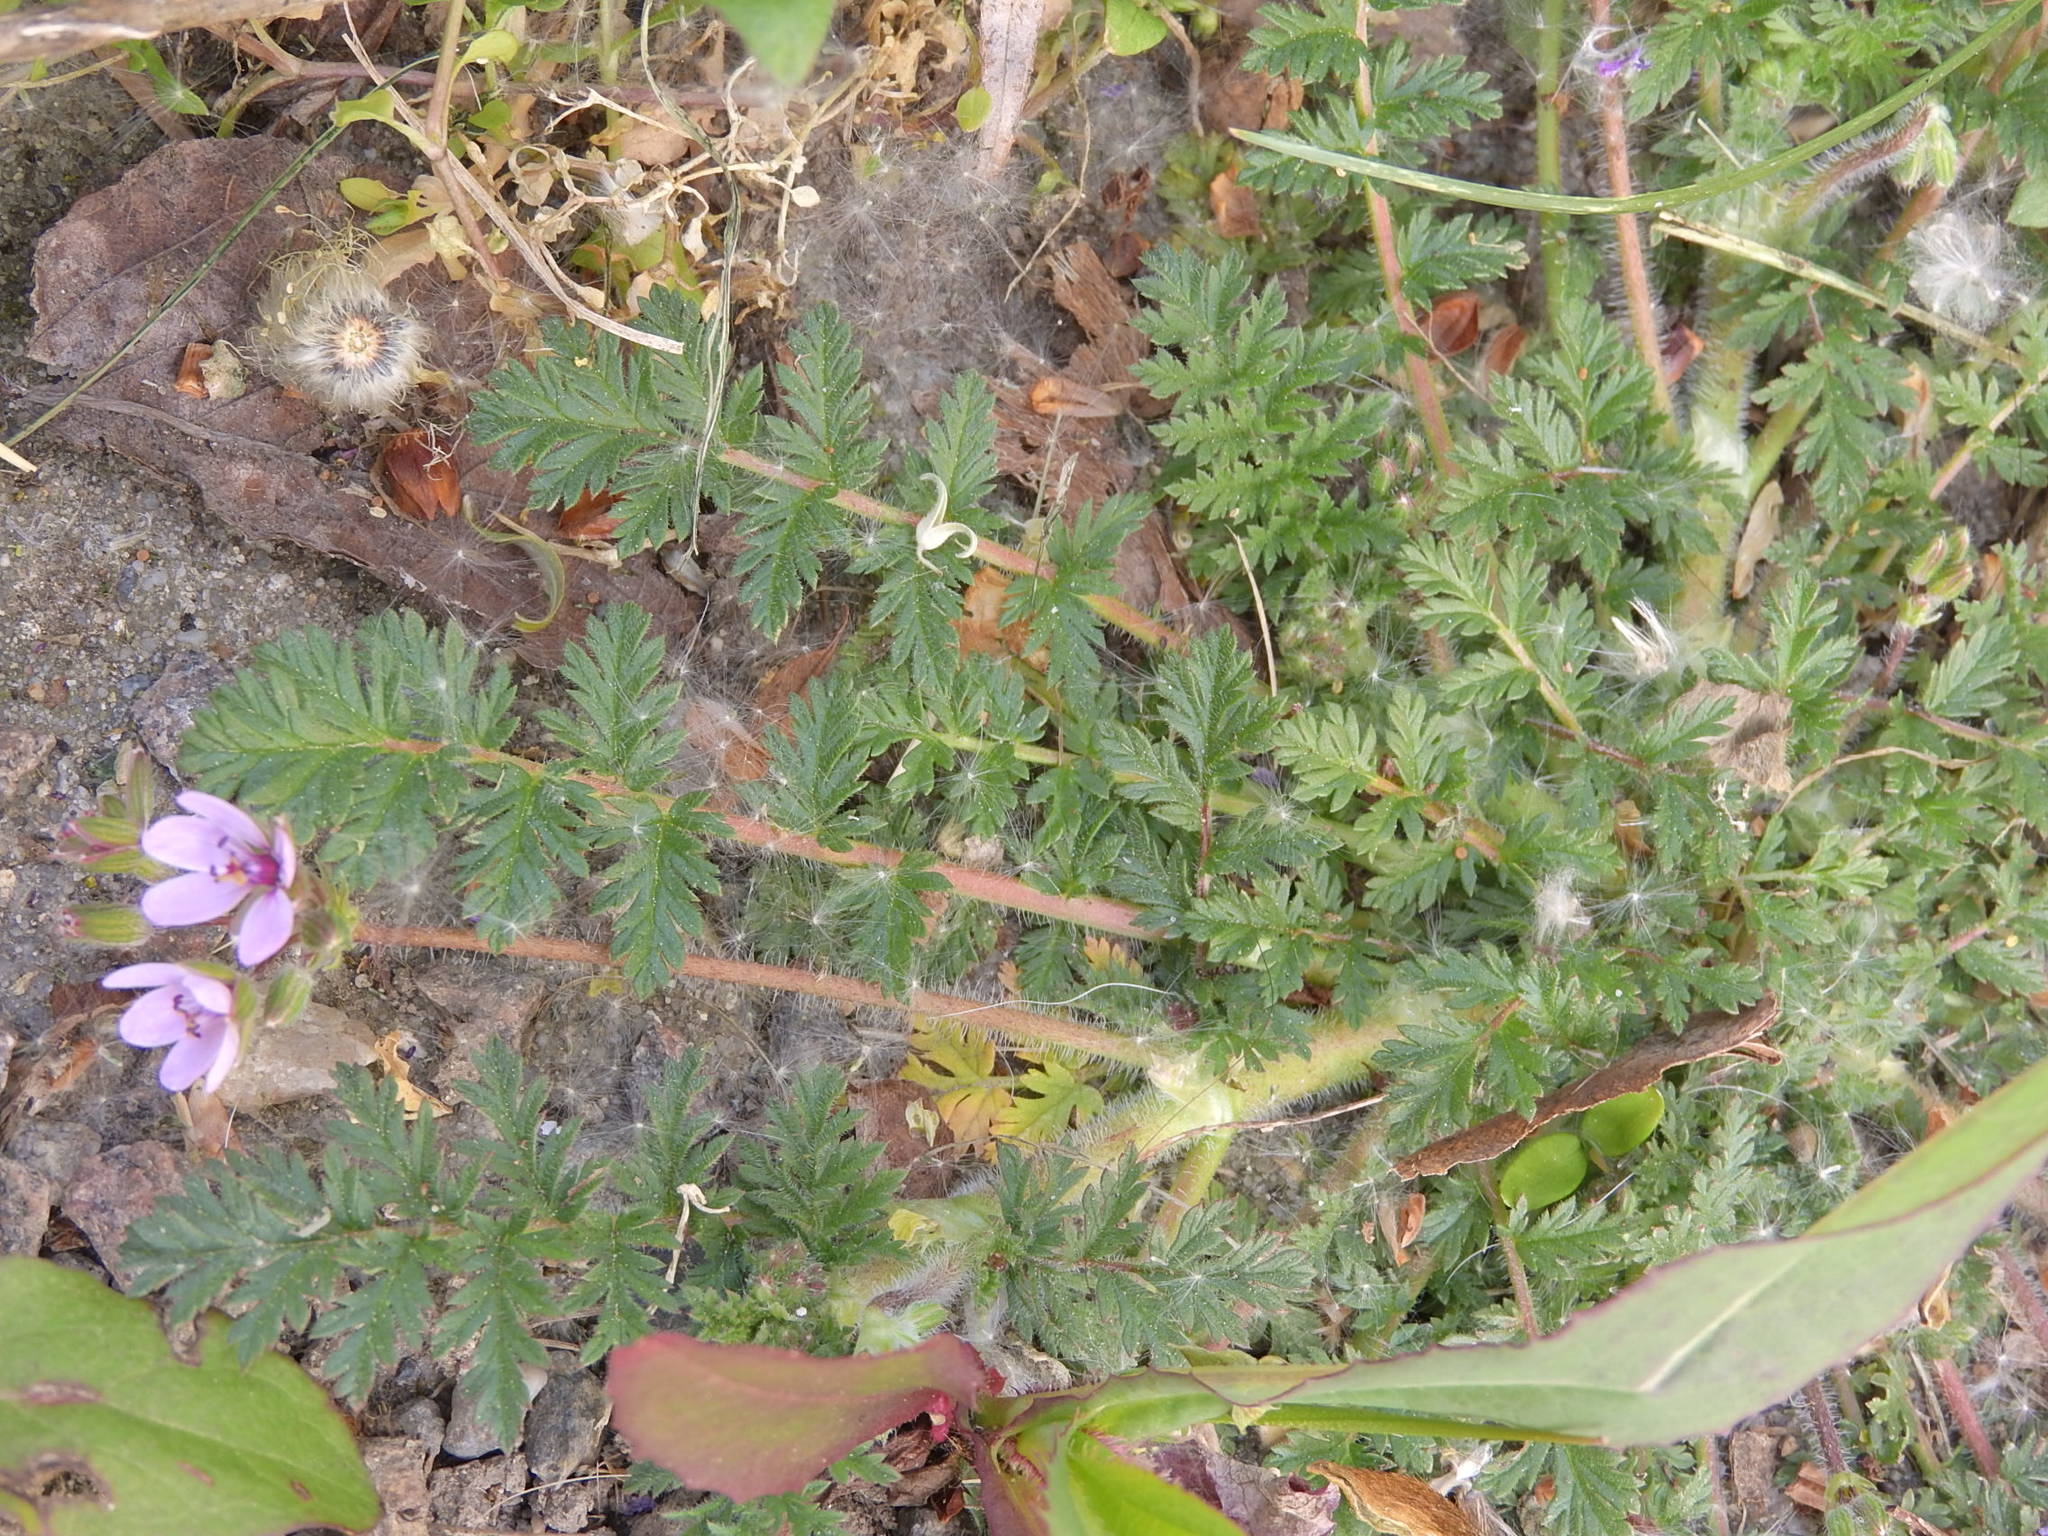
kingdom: Plantae
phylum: Tracheophyta
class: Magnoliopsida
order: Geraniales
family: Geraniaceae
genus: Erodium
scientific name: Erodium cicutarium
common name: Common stork's-bill
